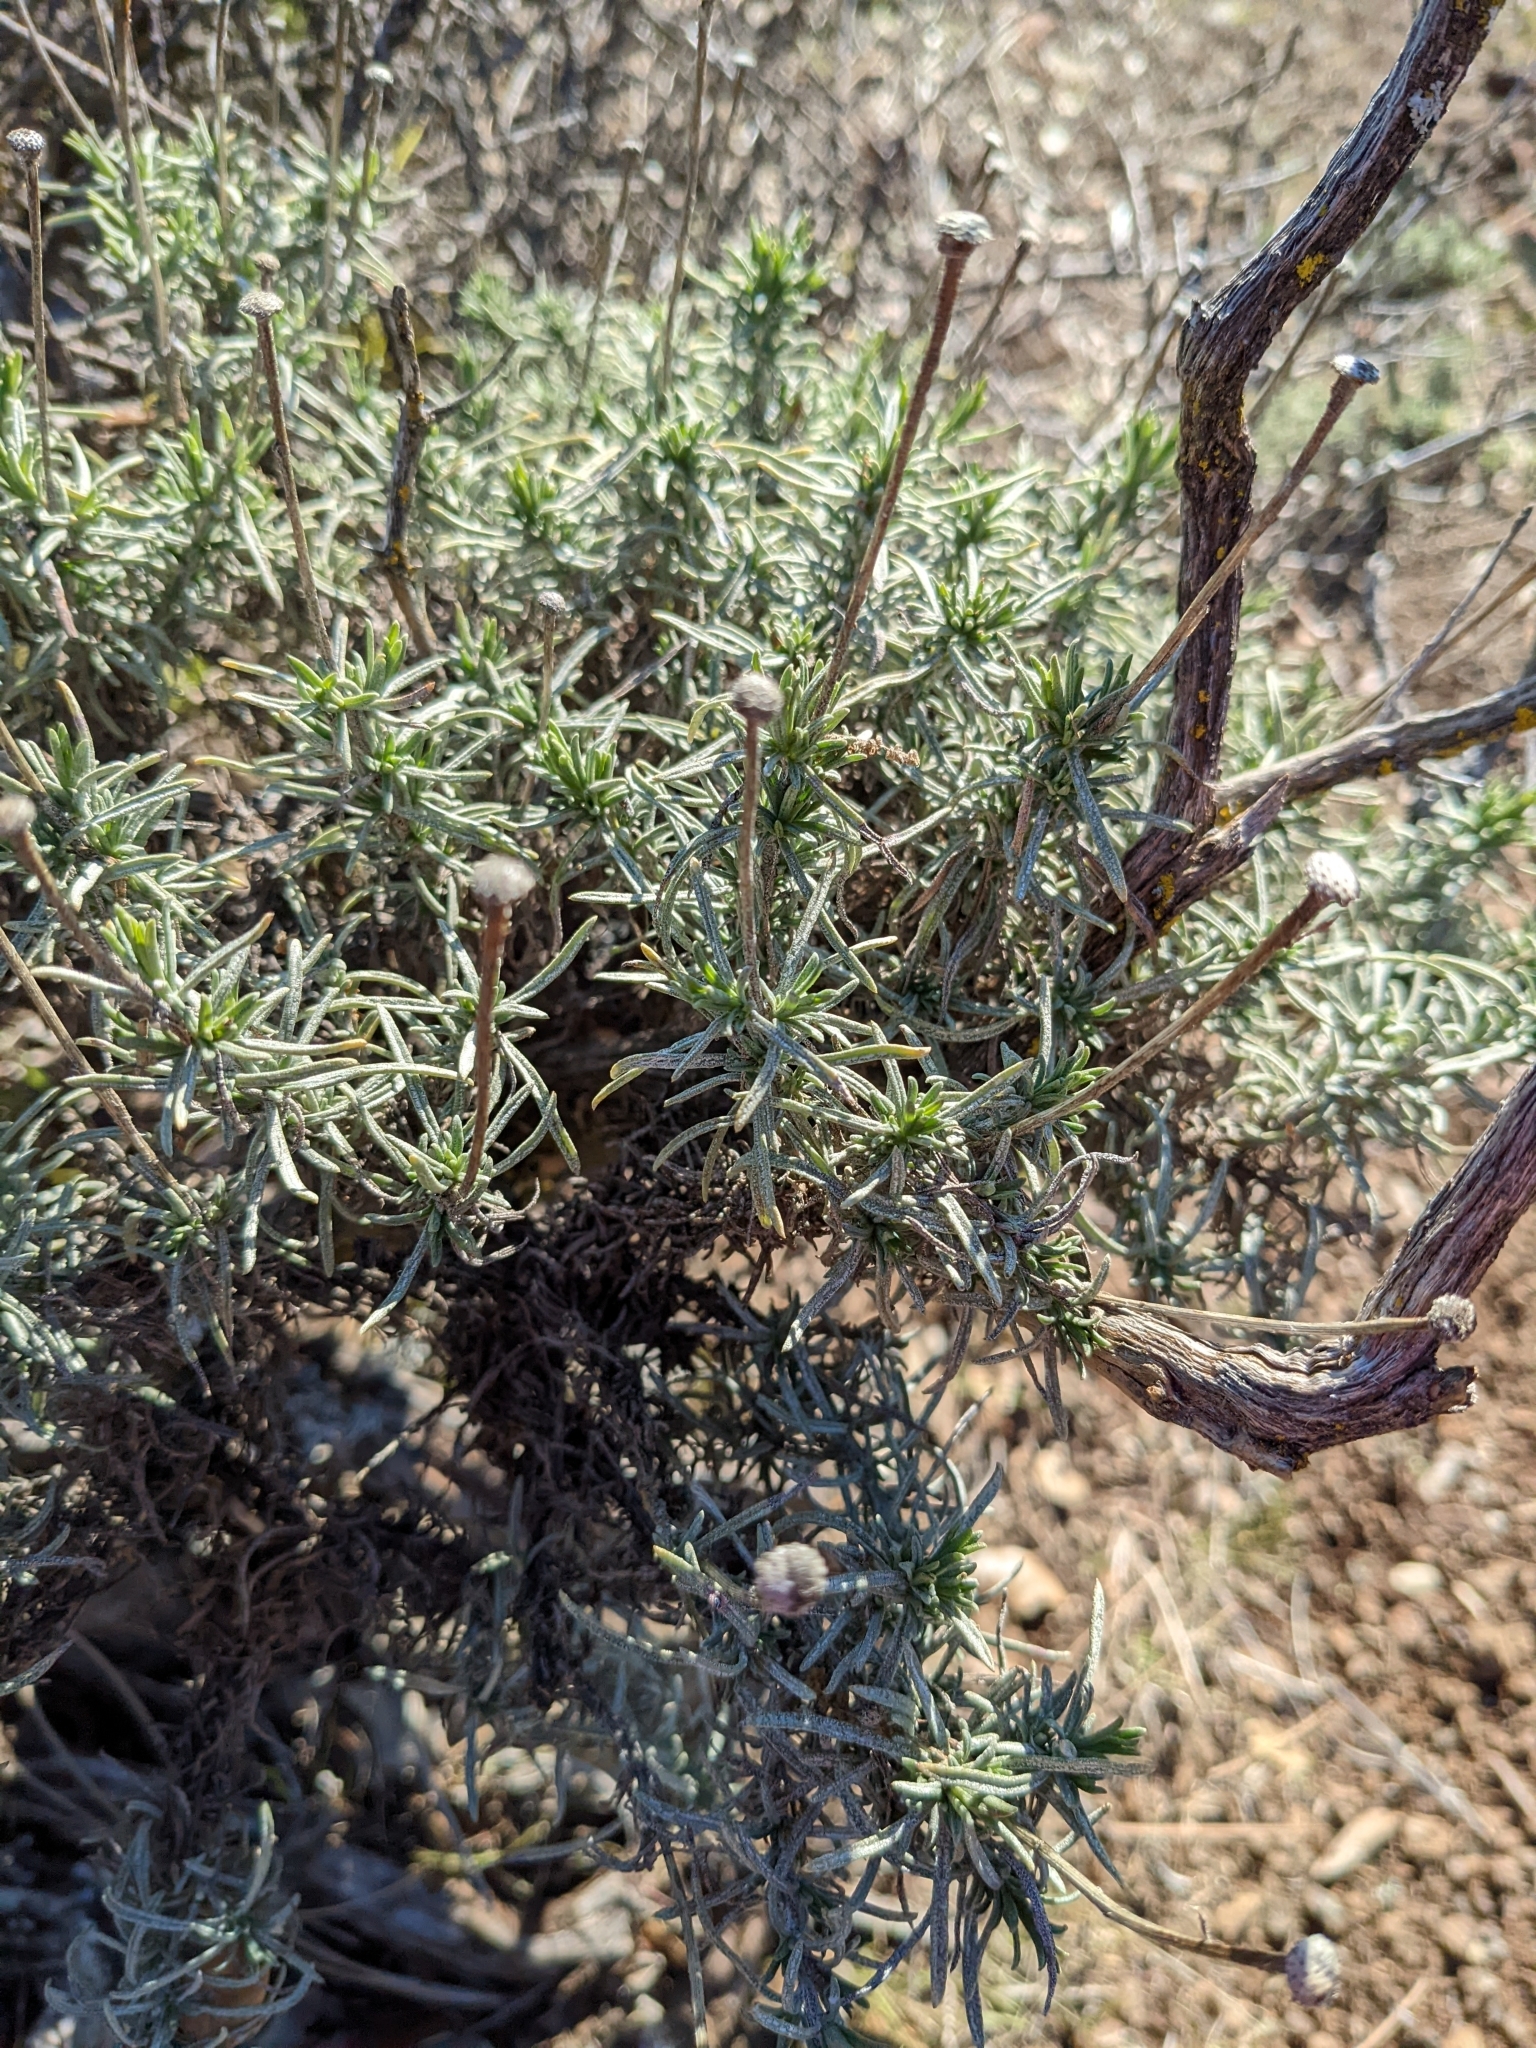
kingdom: Plantae
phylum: Tracheophyta
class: Magnoliopsida
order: Asterales
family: Asteraceae
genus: Ericameria
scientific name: Ericameria linearifolia
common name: Interior goldenbush
